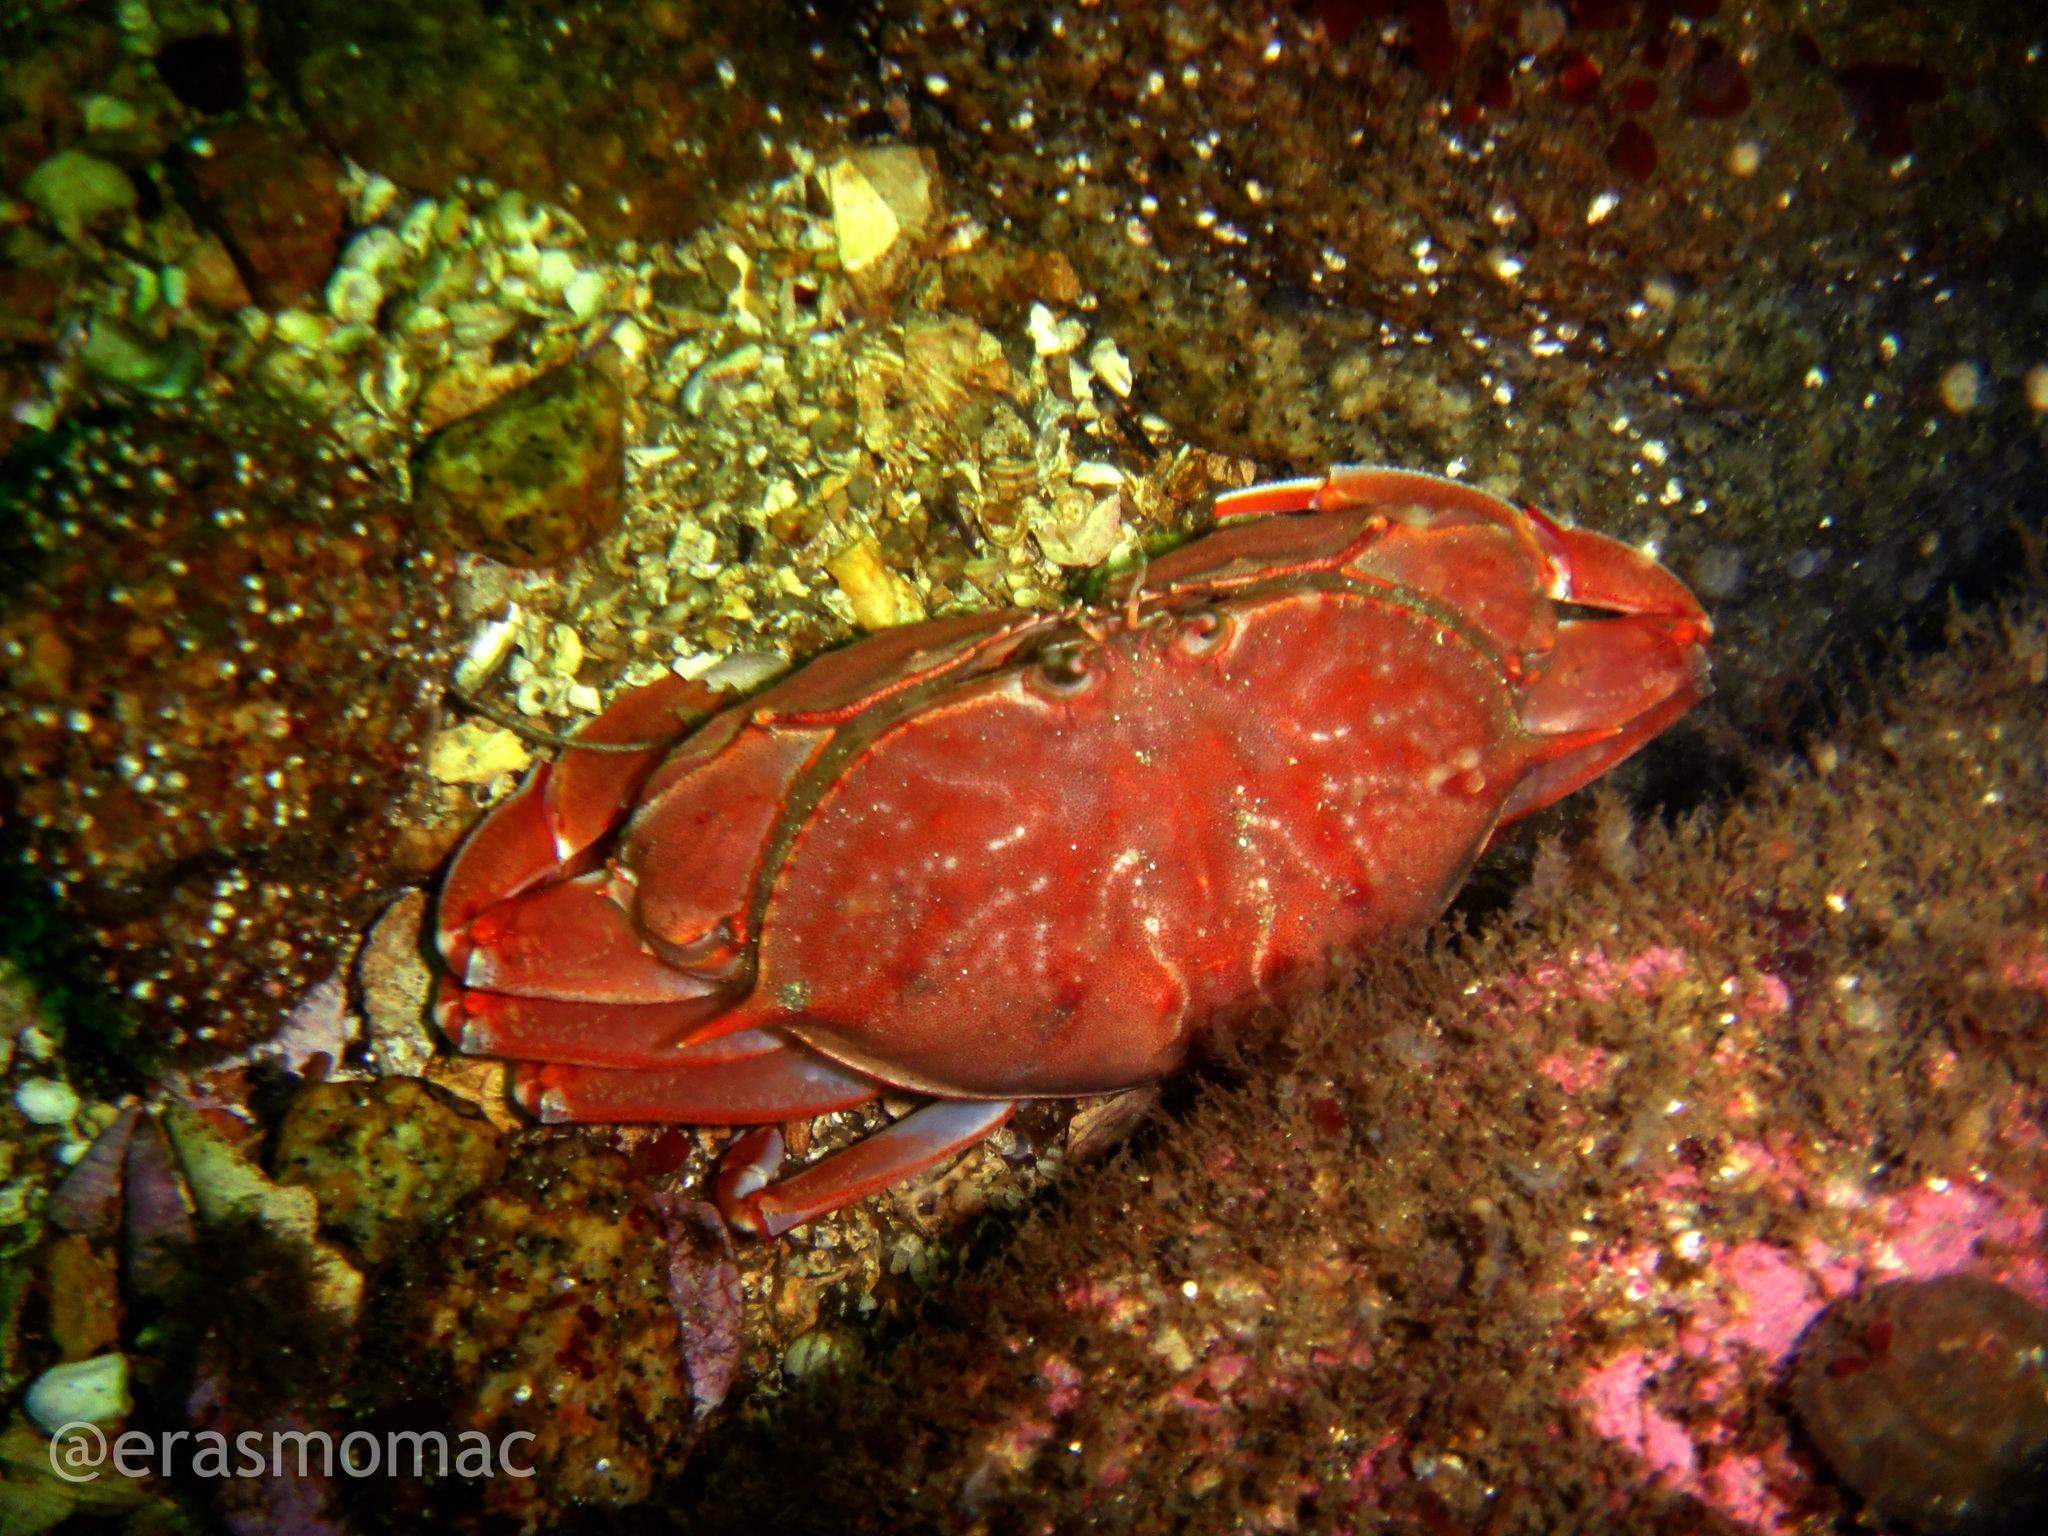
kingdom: Animalia
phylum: Arthropoda
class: Malacostraca
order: Decapoda
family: Calappidae
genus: Platymera
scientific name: Platymera gaudichaudii
